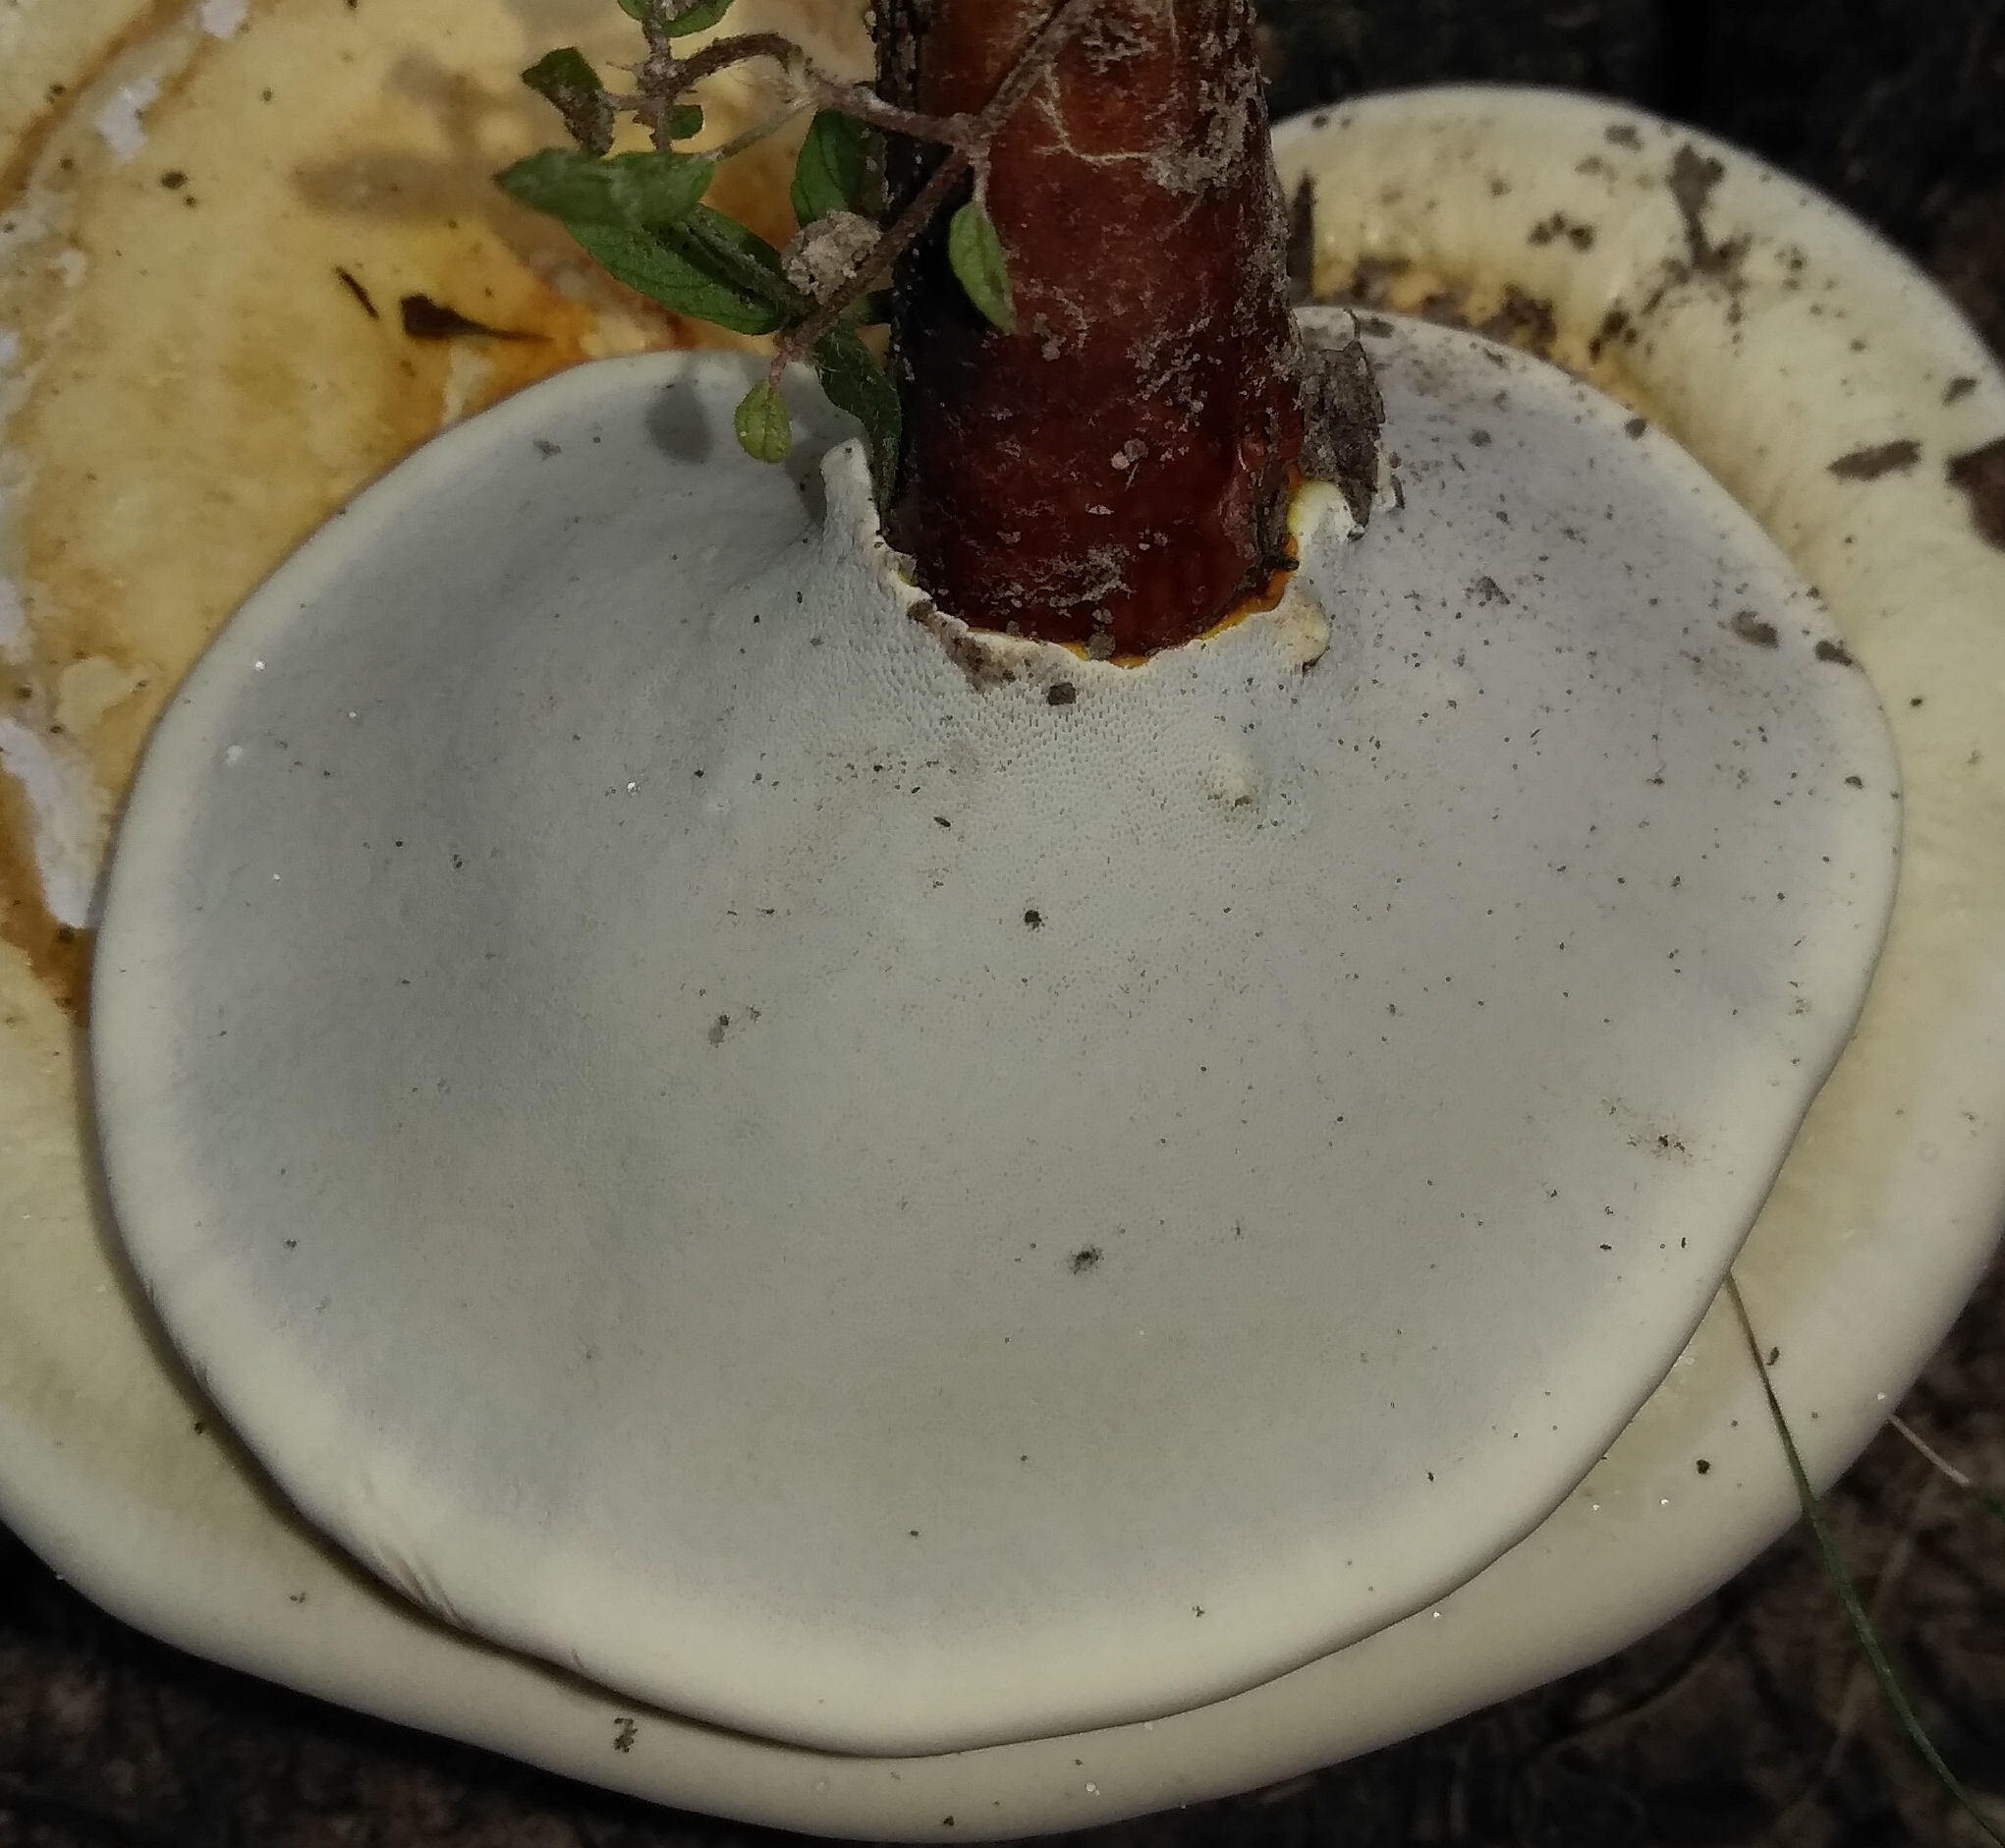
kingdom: Fungi
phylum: Basidiomycota
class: Agaricomycetes
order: Polyporales
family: Polyporaceae
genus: Ganoderma
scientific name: Ganoderma curtisii
